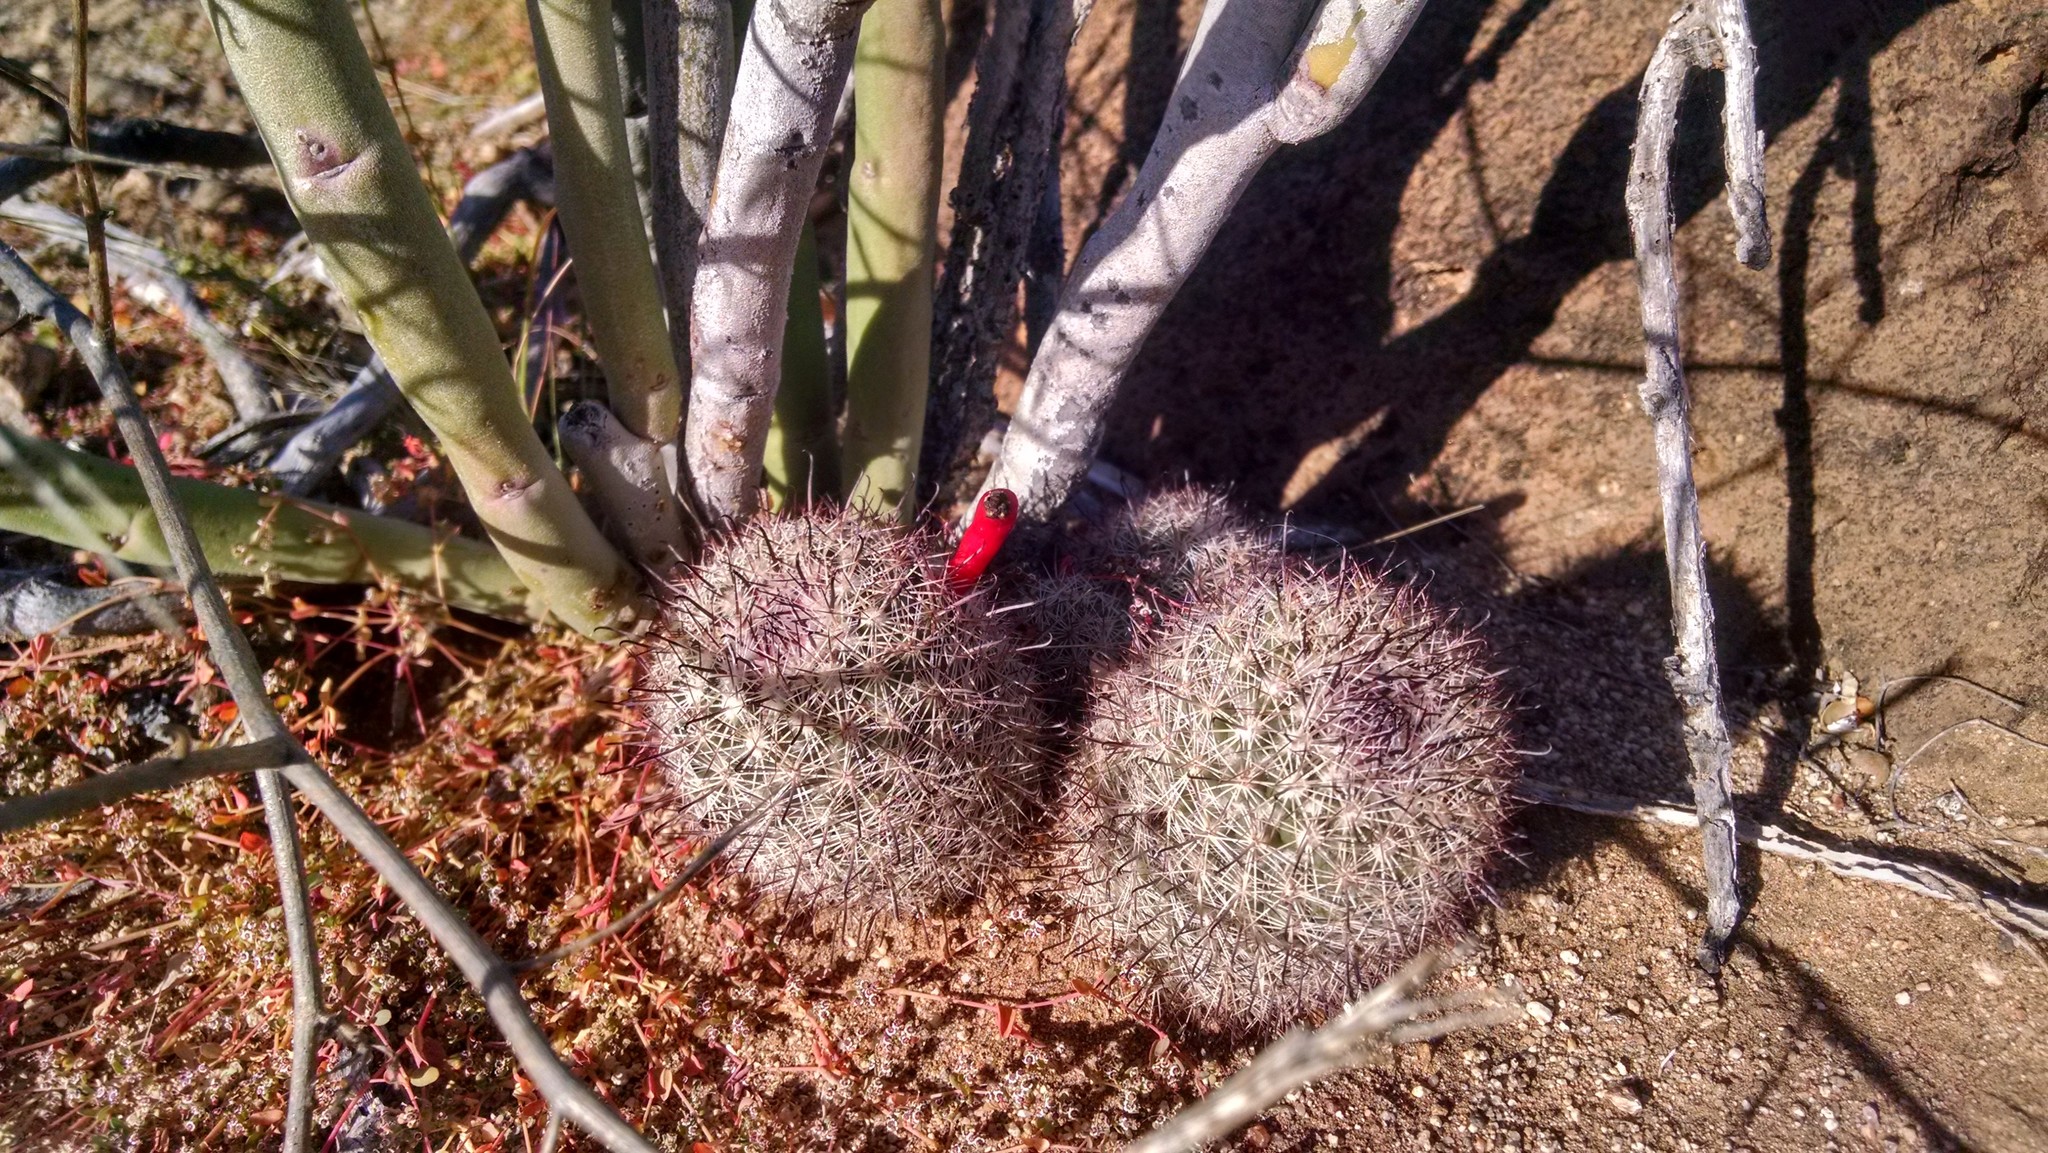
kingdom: Plantae
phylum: Tracheophyta
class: Magnoliopsida
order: Caryophyllales
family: Cactaceae
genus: Cochemiea
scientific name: Cochemiea dioica
